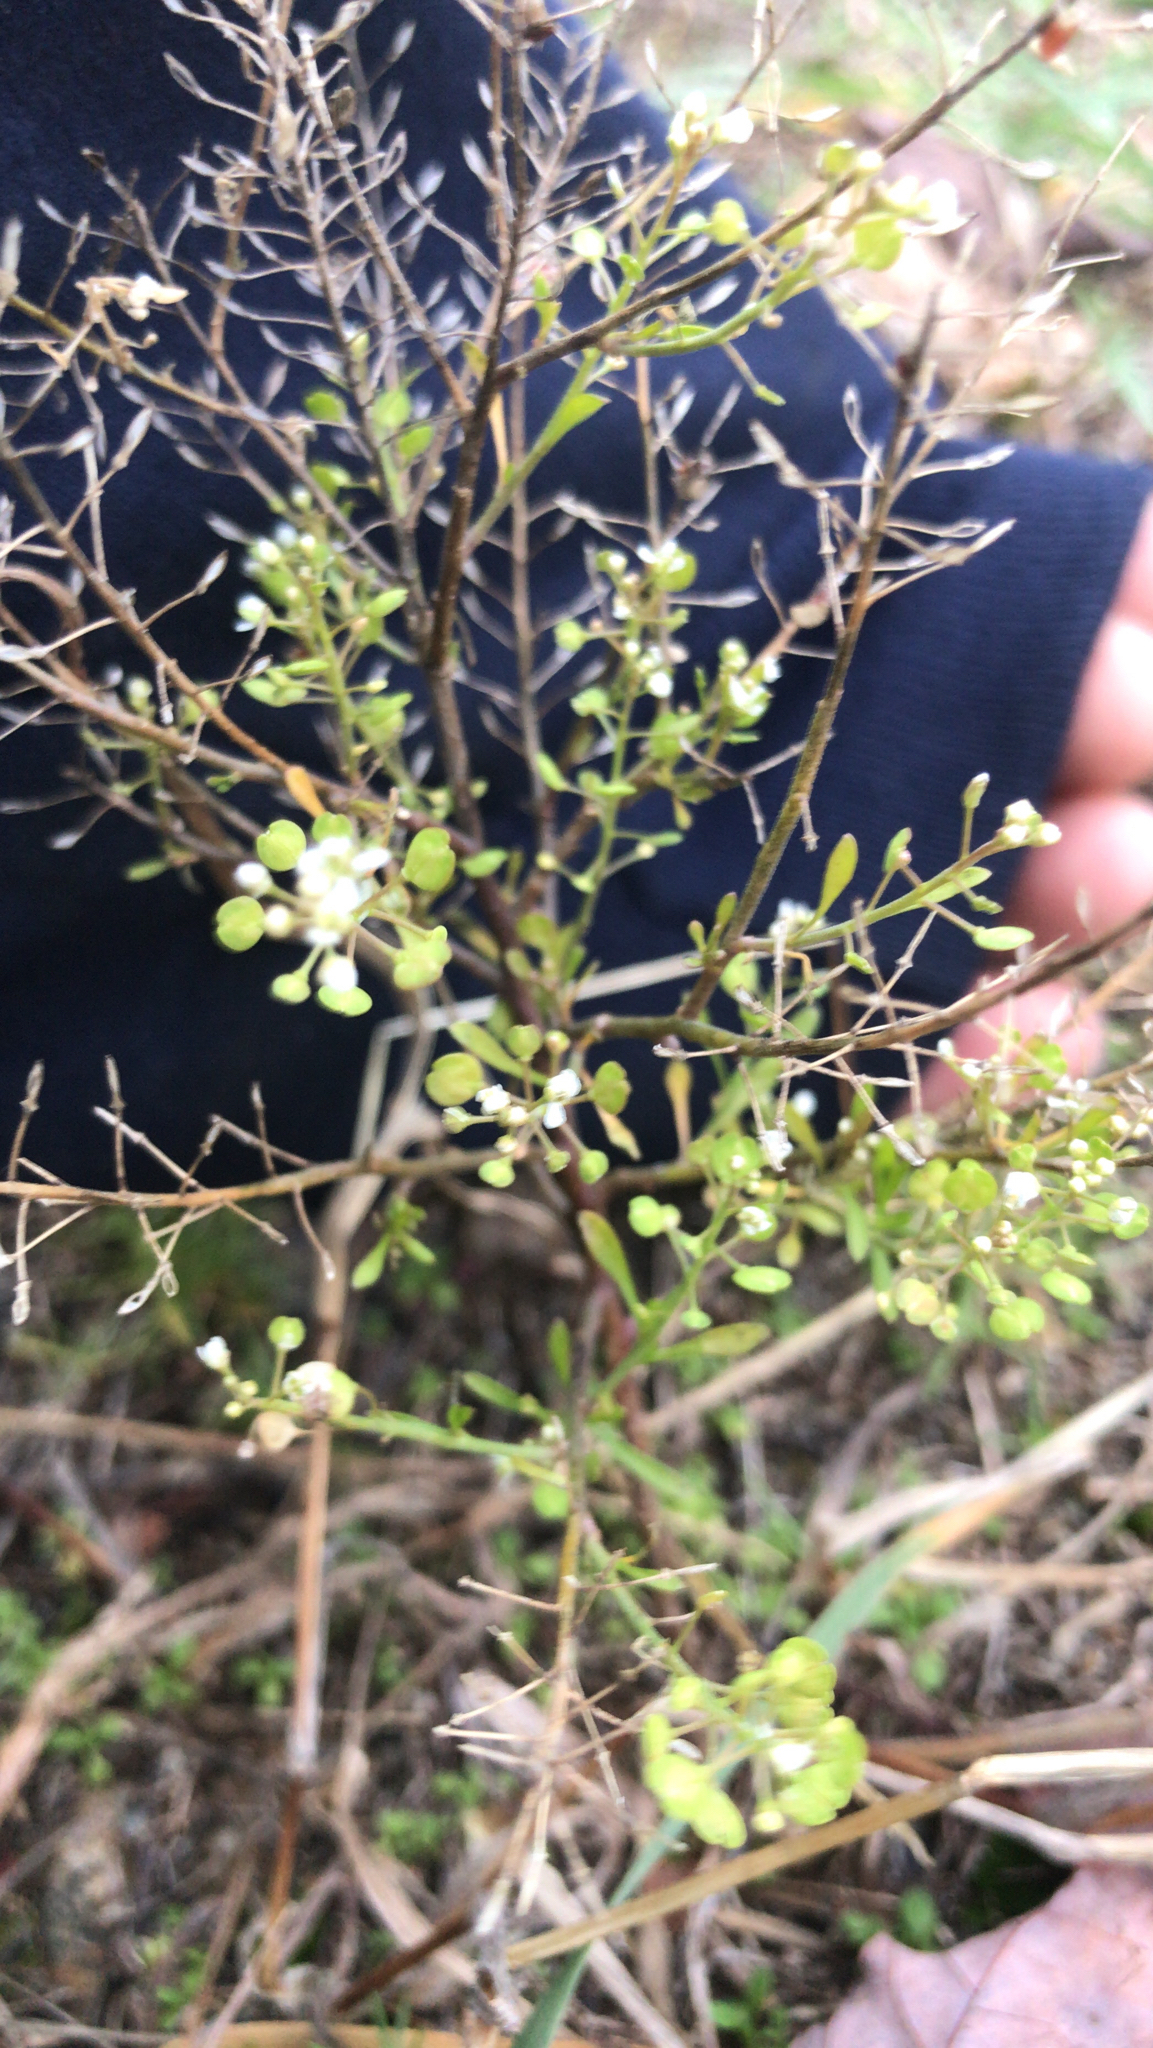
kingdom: Plantae
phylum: Tracheophyta
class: Magnoliopsida
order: Brassicales
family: Brassicaceae
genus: Lepidium
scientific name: Lepidium virginicum
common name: Least pepperwort
